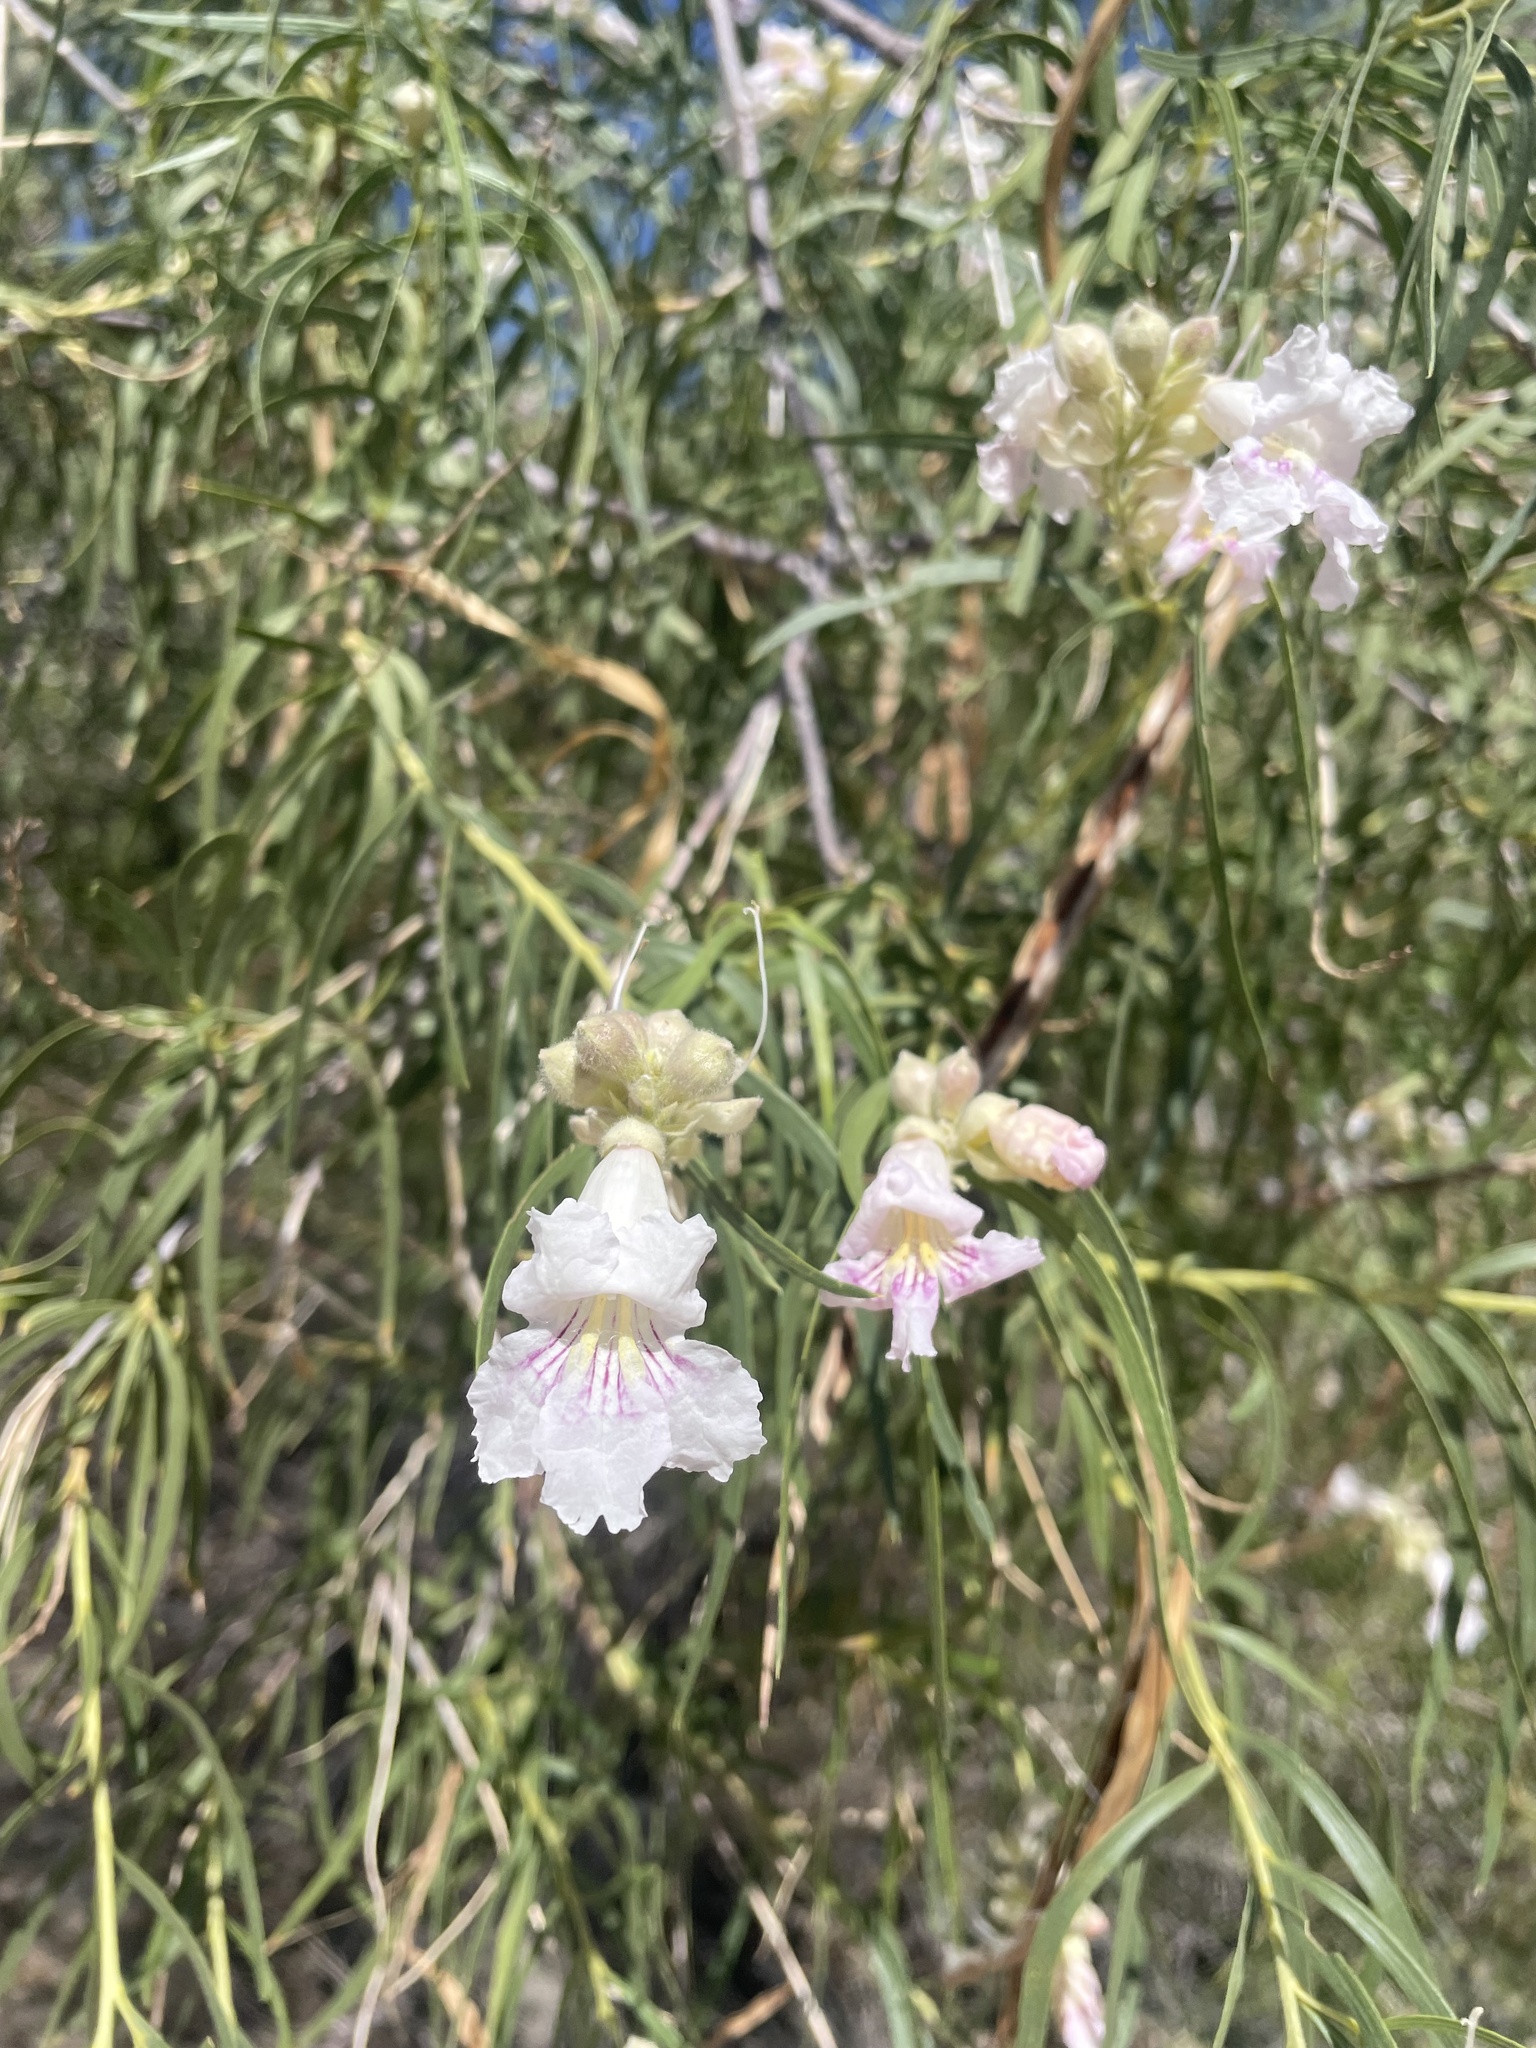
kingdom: Plantae
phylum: Tracheophyta
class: Magnoliopsida
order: Lamiales
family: Bignoniaceae
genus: Chilopsis
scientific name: Chilopsis linearis
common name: Desert-willow
